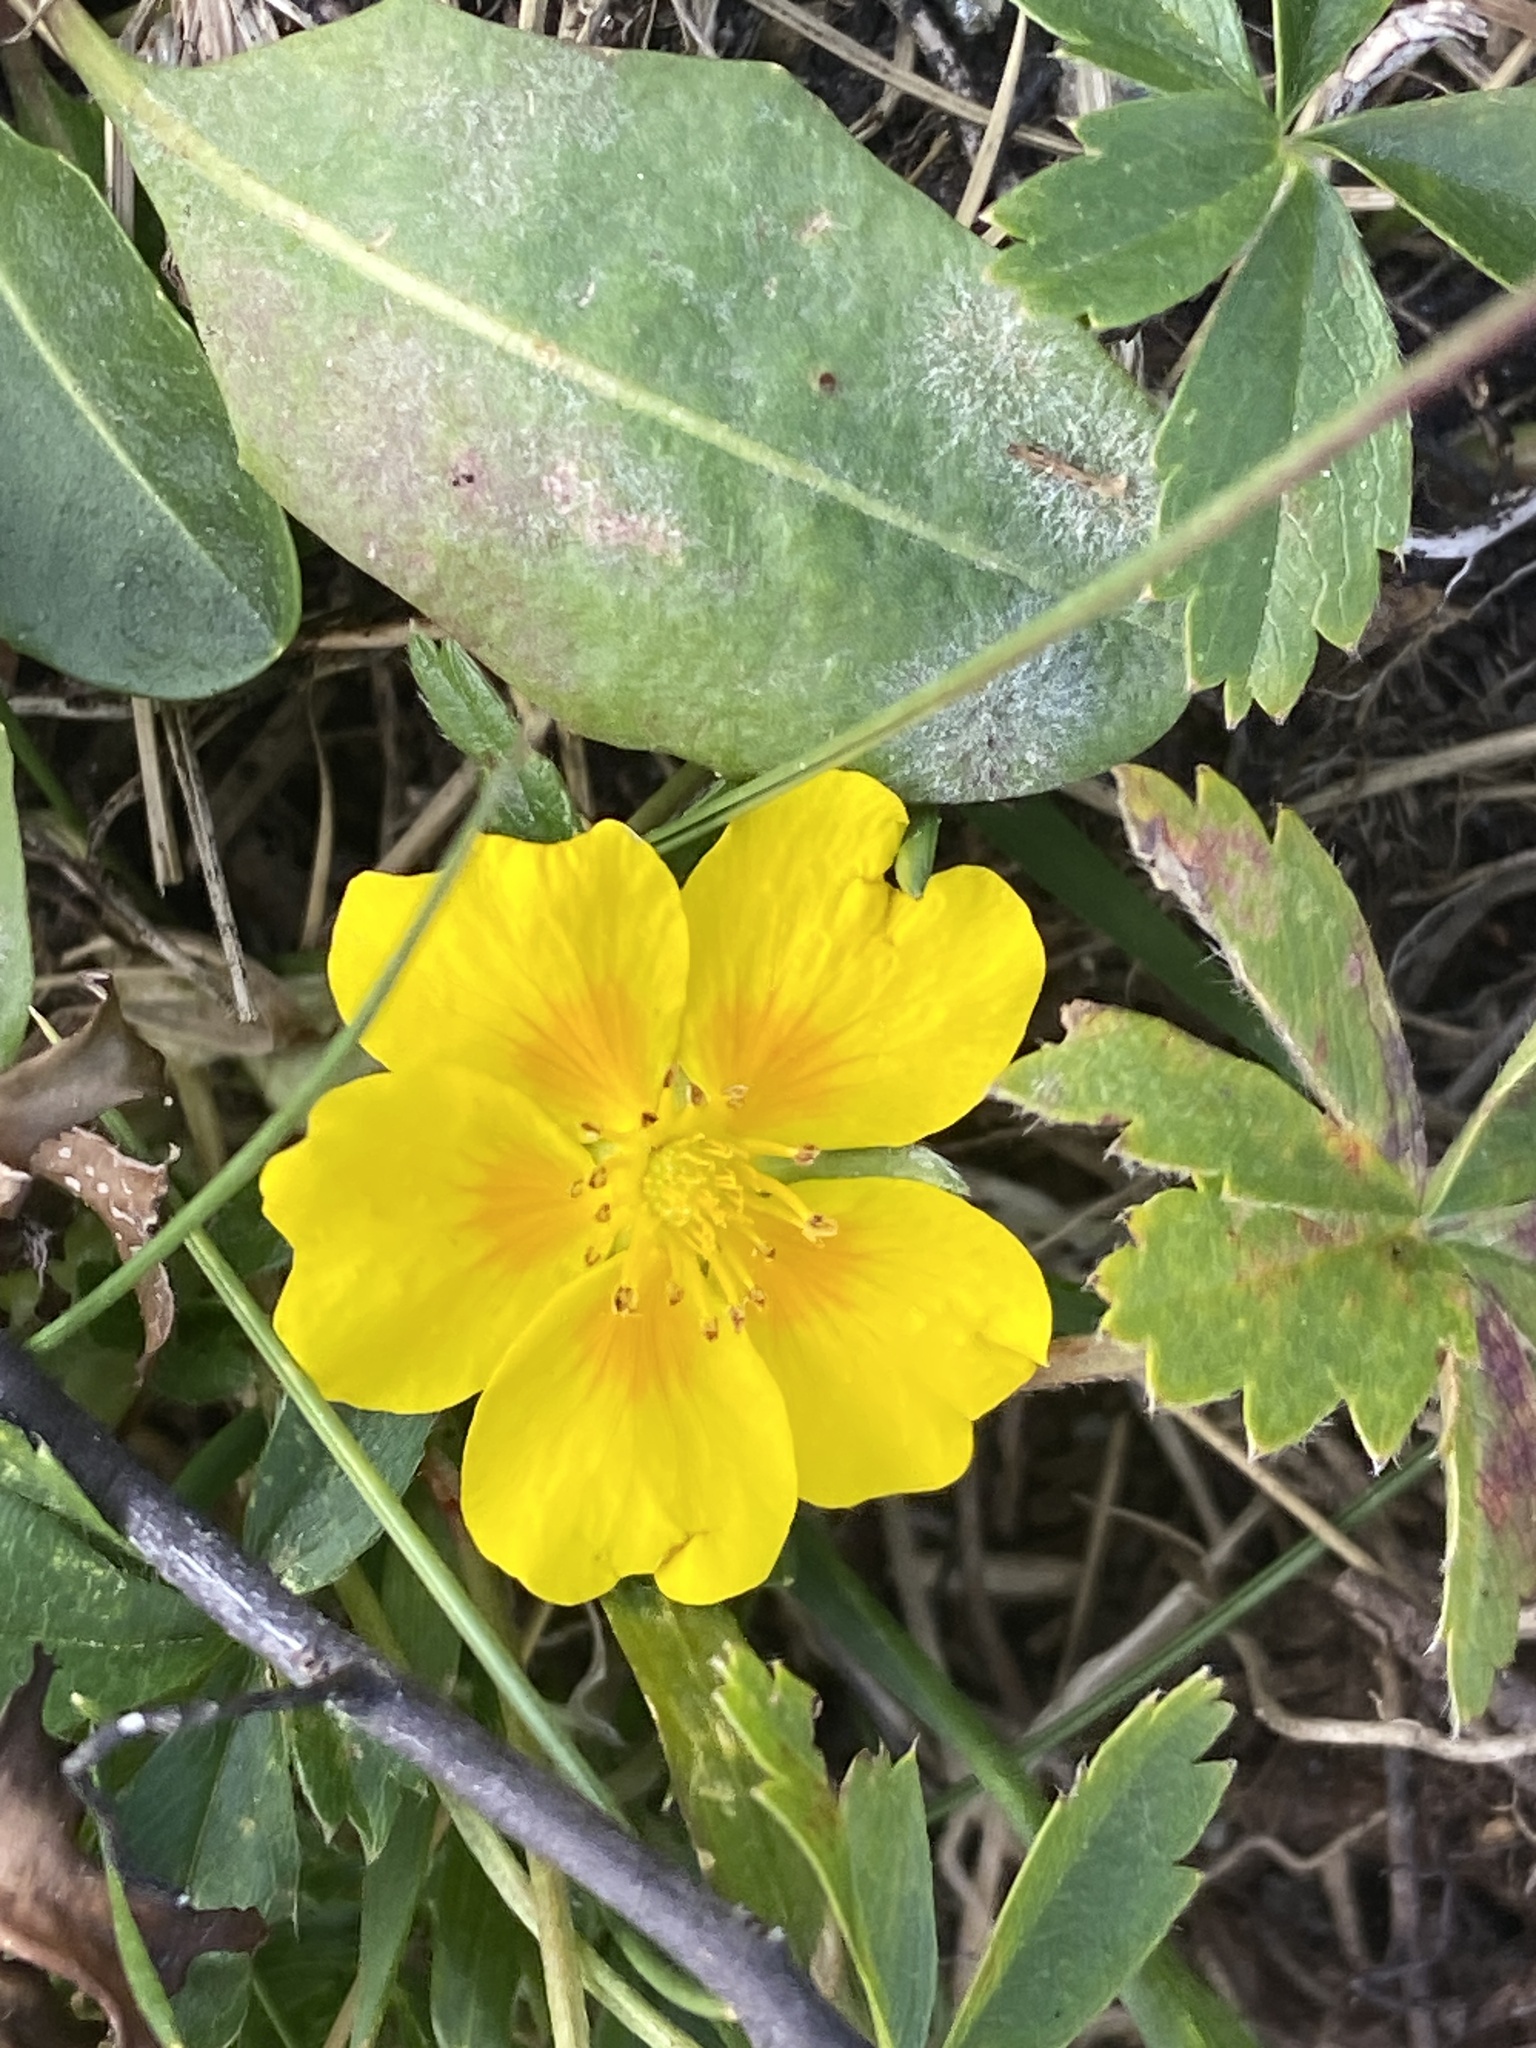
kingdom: Plantae
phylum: Tracheophyta
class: Magnoliopsida
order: Rosales
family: Rosaceae
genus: Potentilla
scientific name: Potentilla aurea
